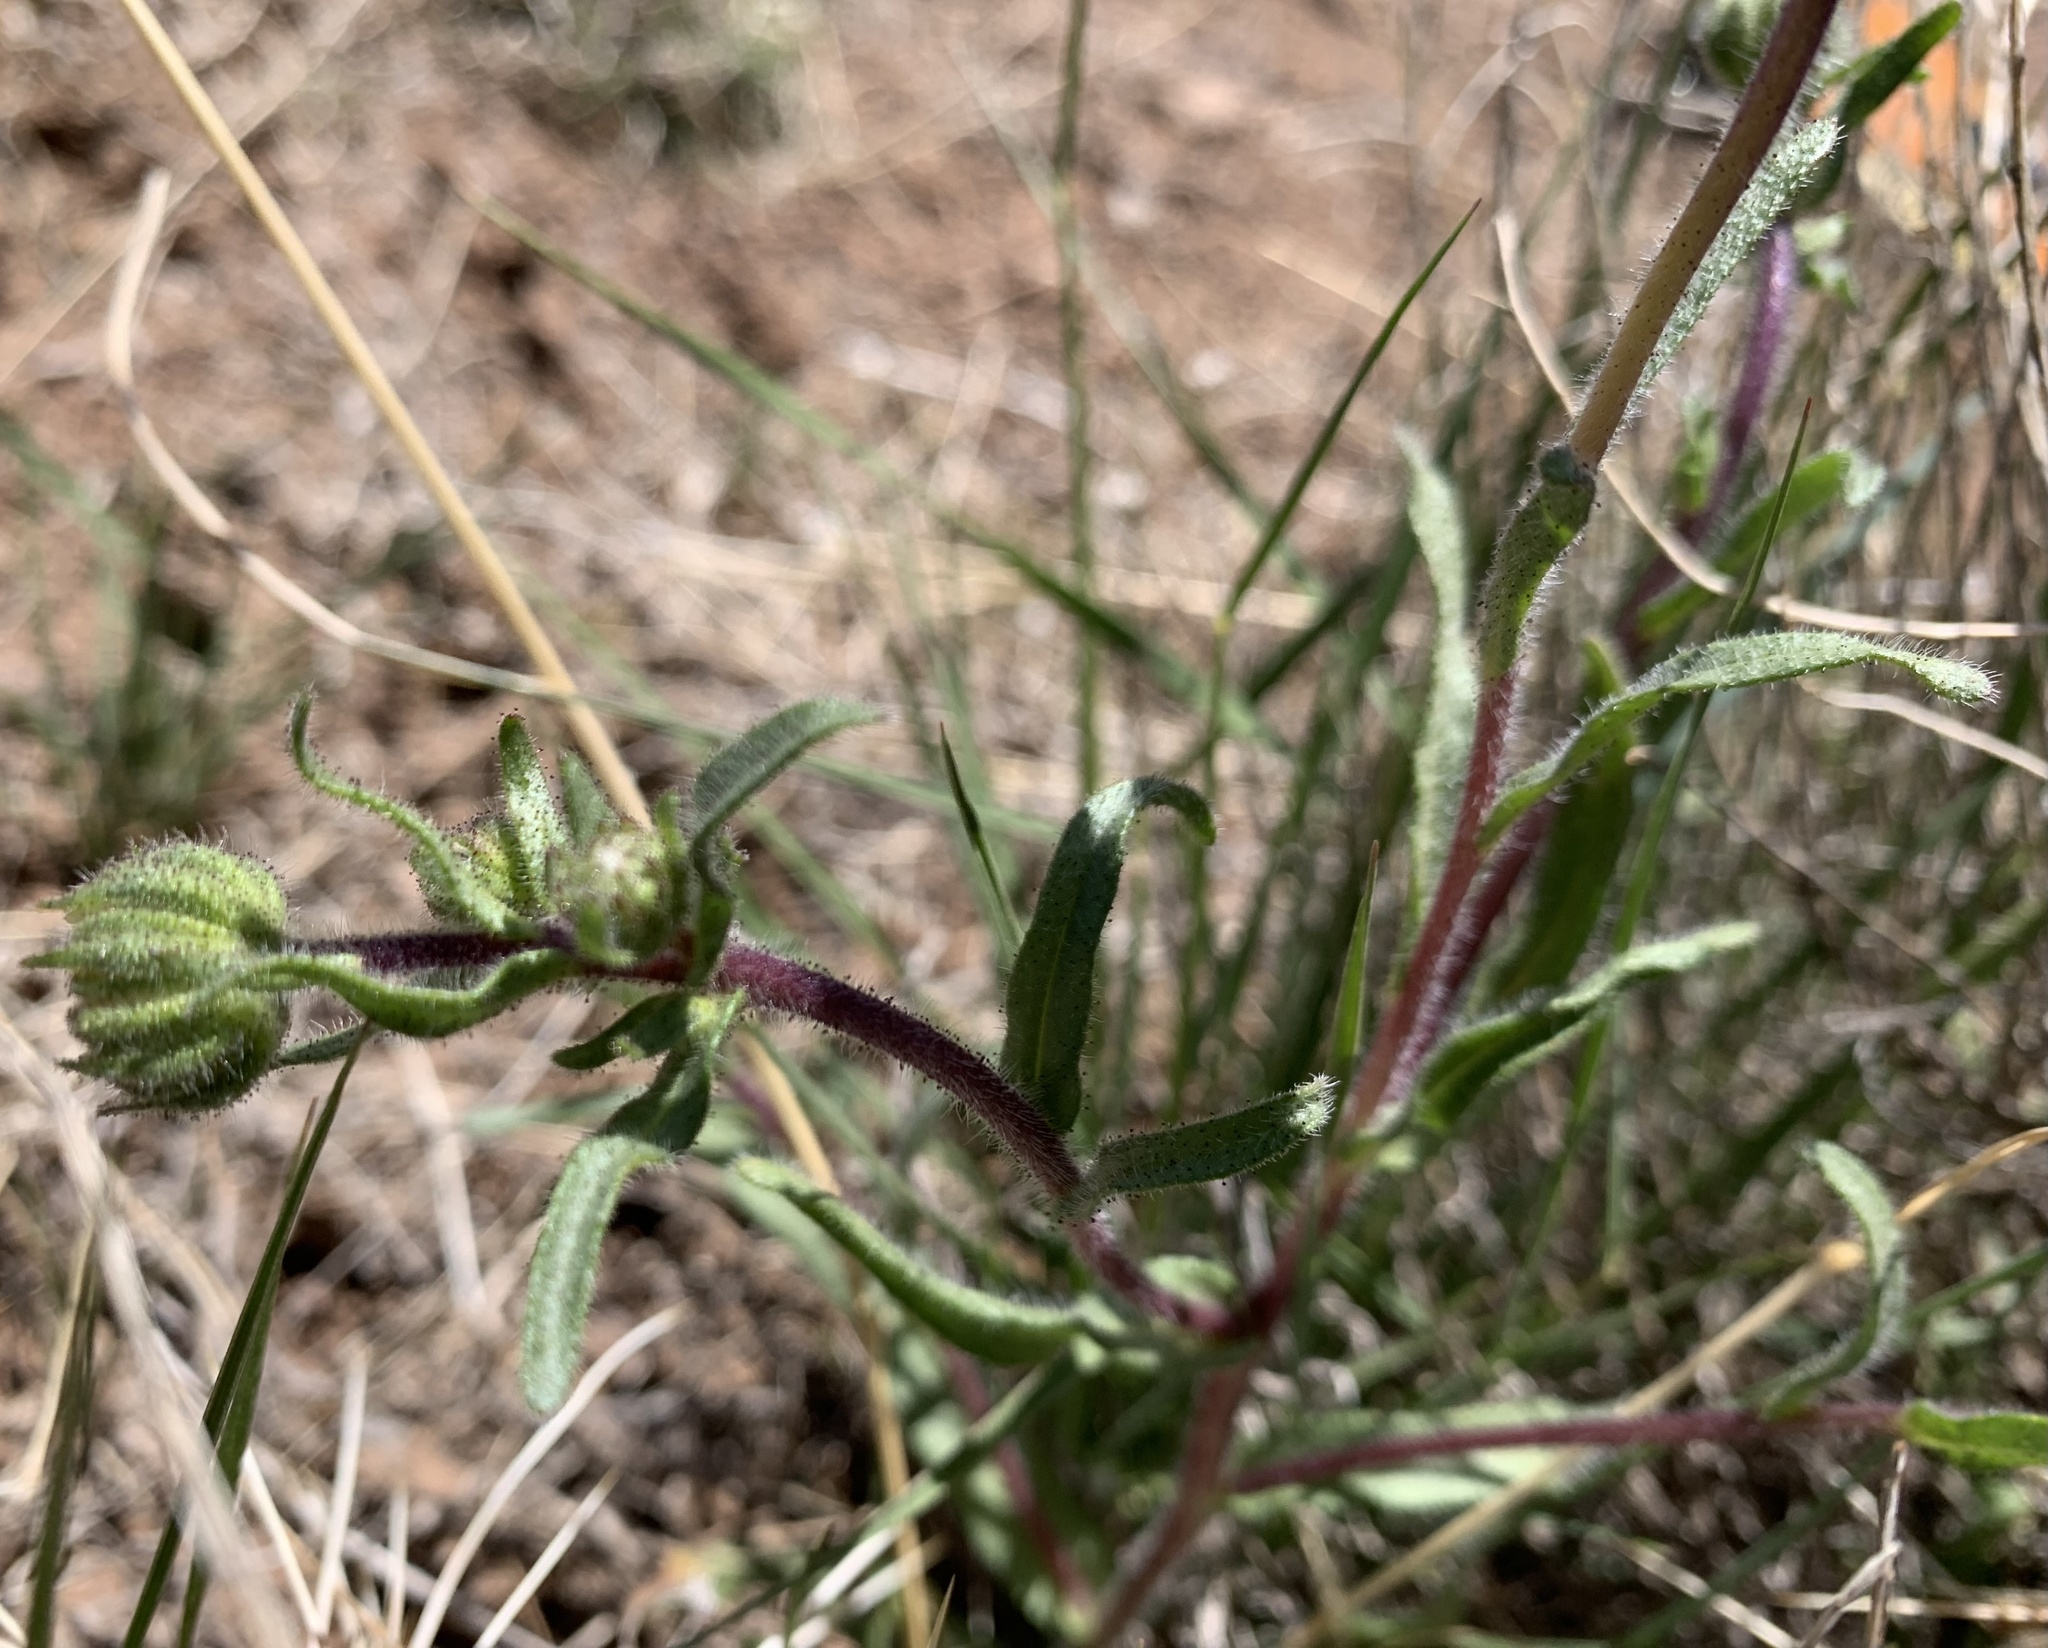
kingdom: Plantae
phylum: Tracheophyta
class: Magnoliopsida
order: Asterales
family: Asteraceae
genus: Layia
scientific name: Layia glandulosa
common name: White layia
